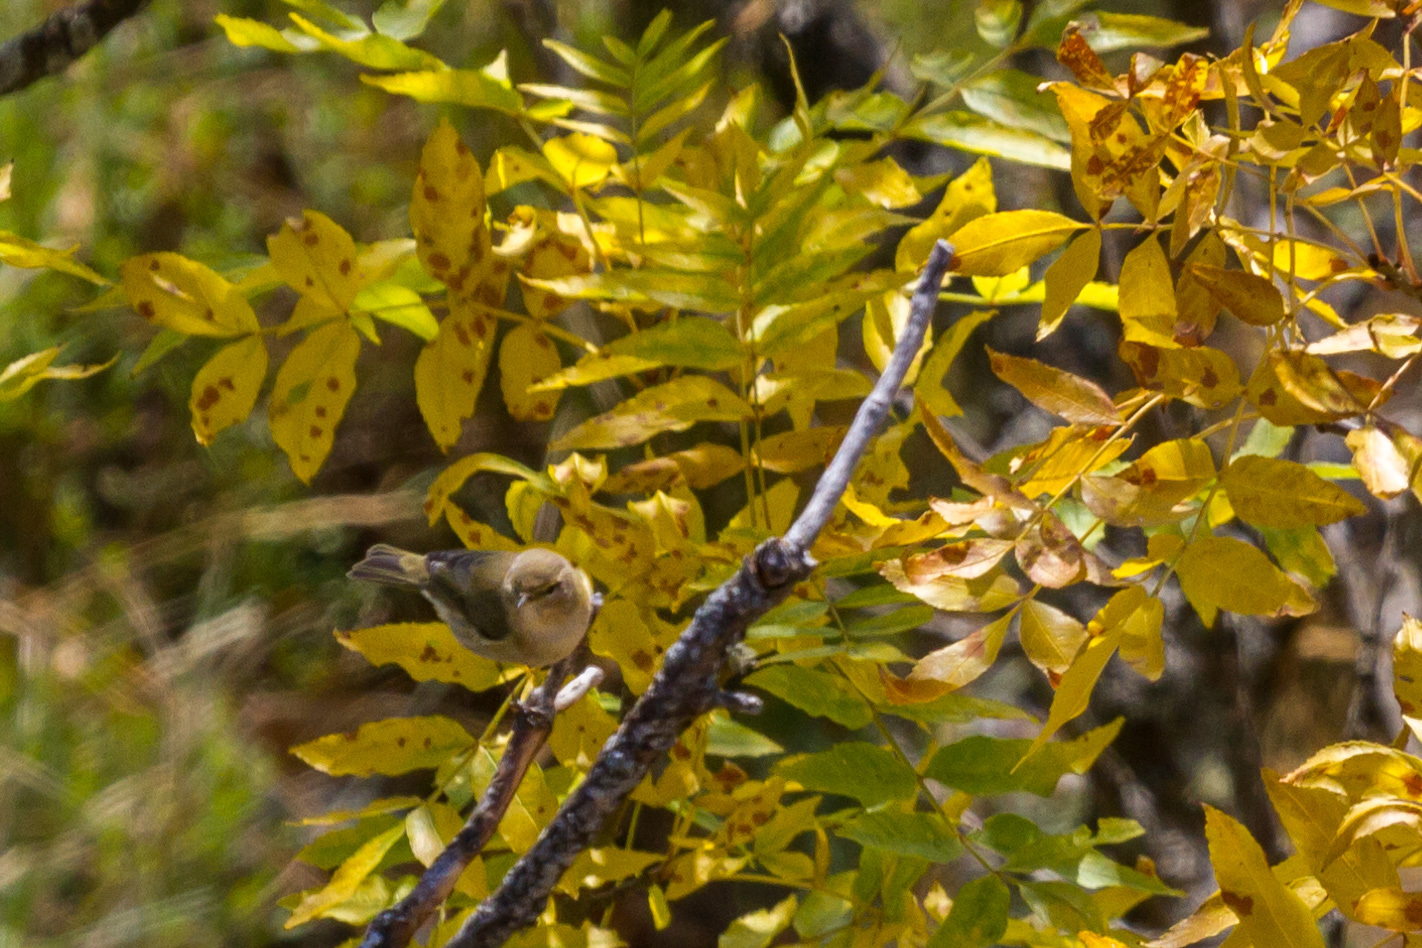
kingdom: Animalia
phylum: Chordata
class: Aves
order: Passeriformes
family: Phylloscopidae
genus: Phylloscopus
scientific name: Phylloscopus collybita
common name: Common chiffchaff
